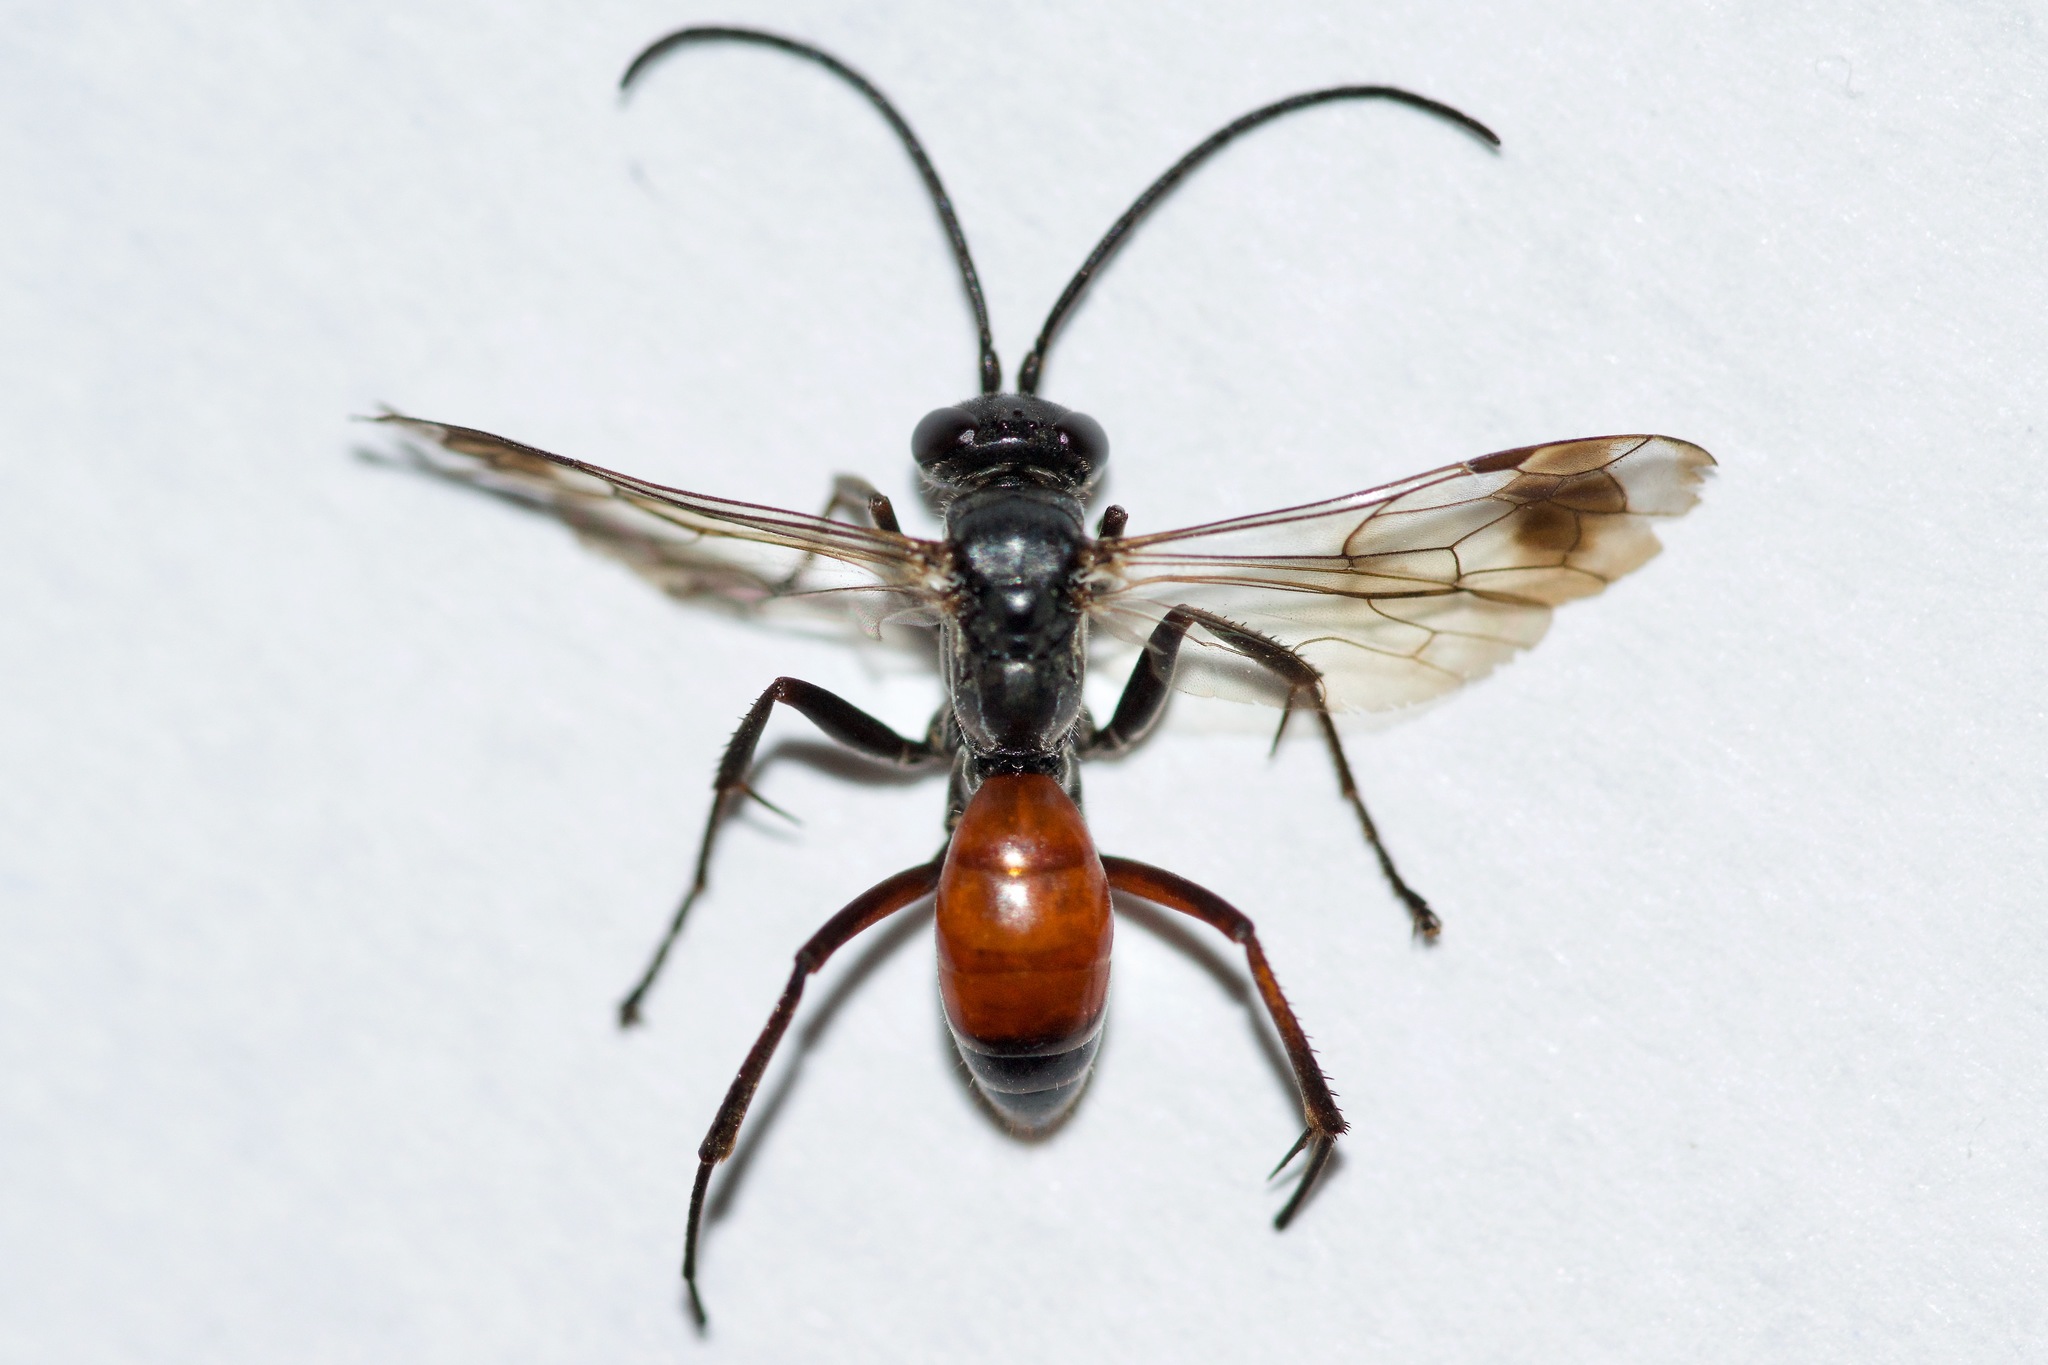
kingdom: Animalia
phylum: Arthropoda
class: Insecta
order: Hymenoptera
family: Pompilidae
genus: Caliadurgus
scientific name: Caliadurgus fasciatellus
